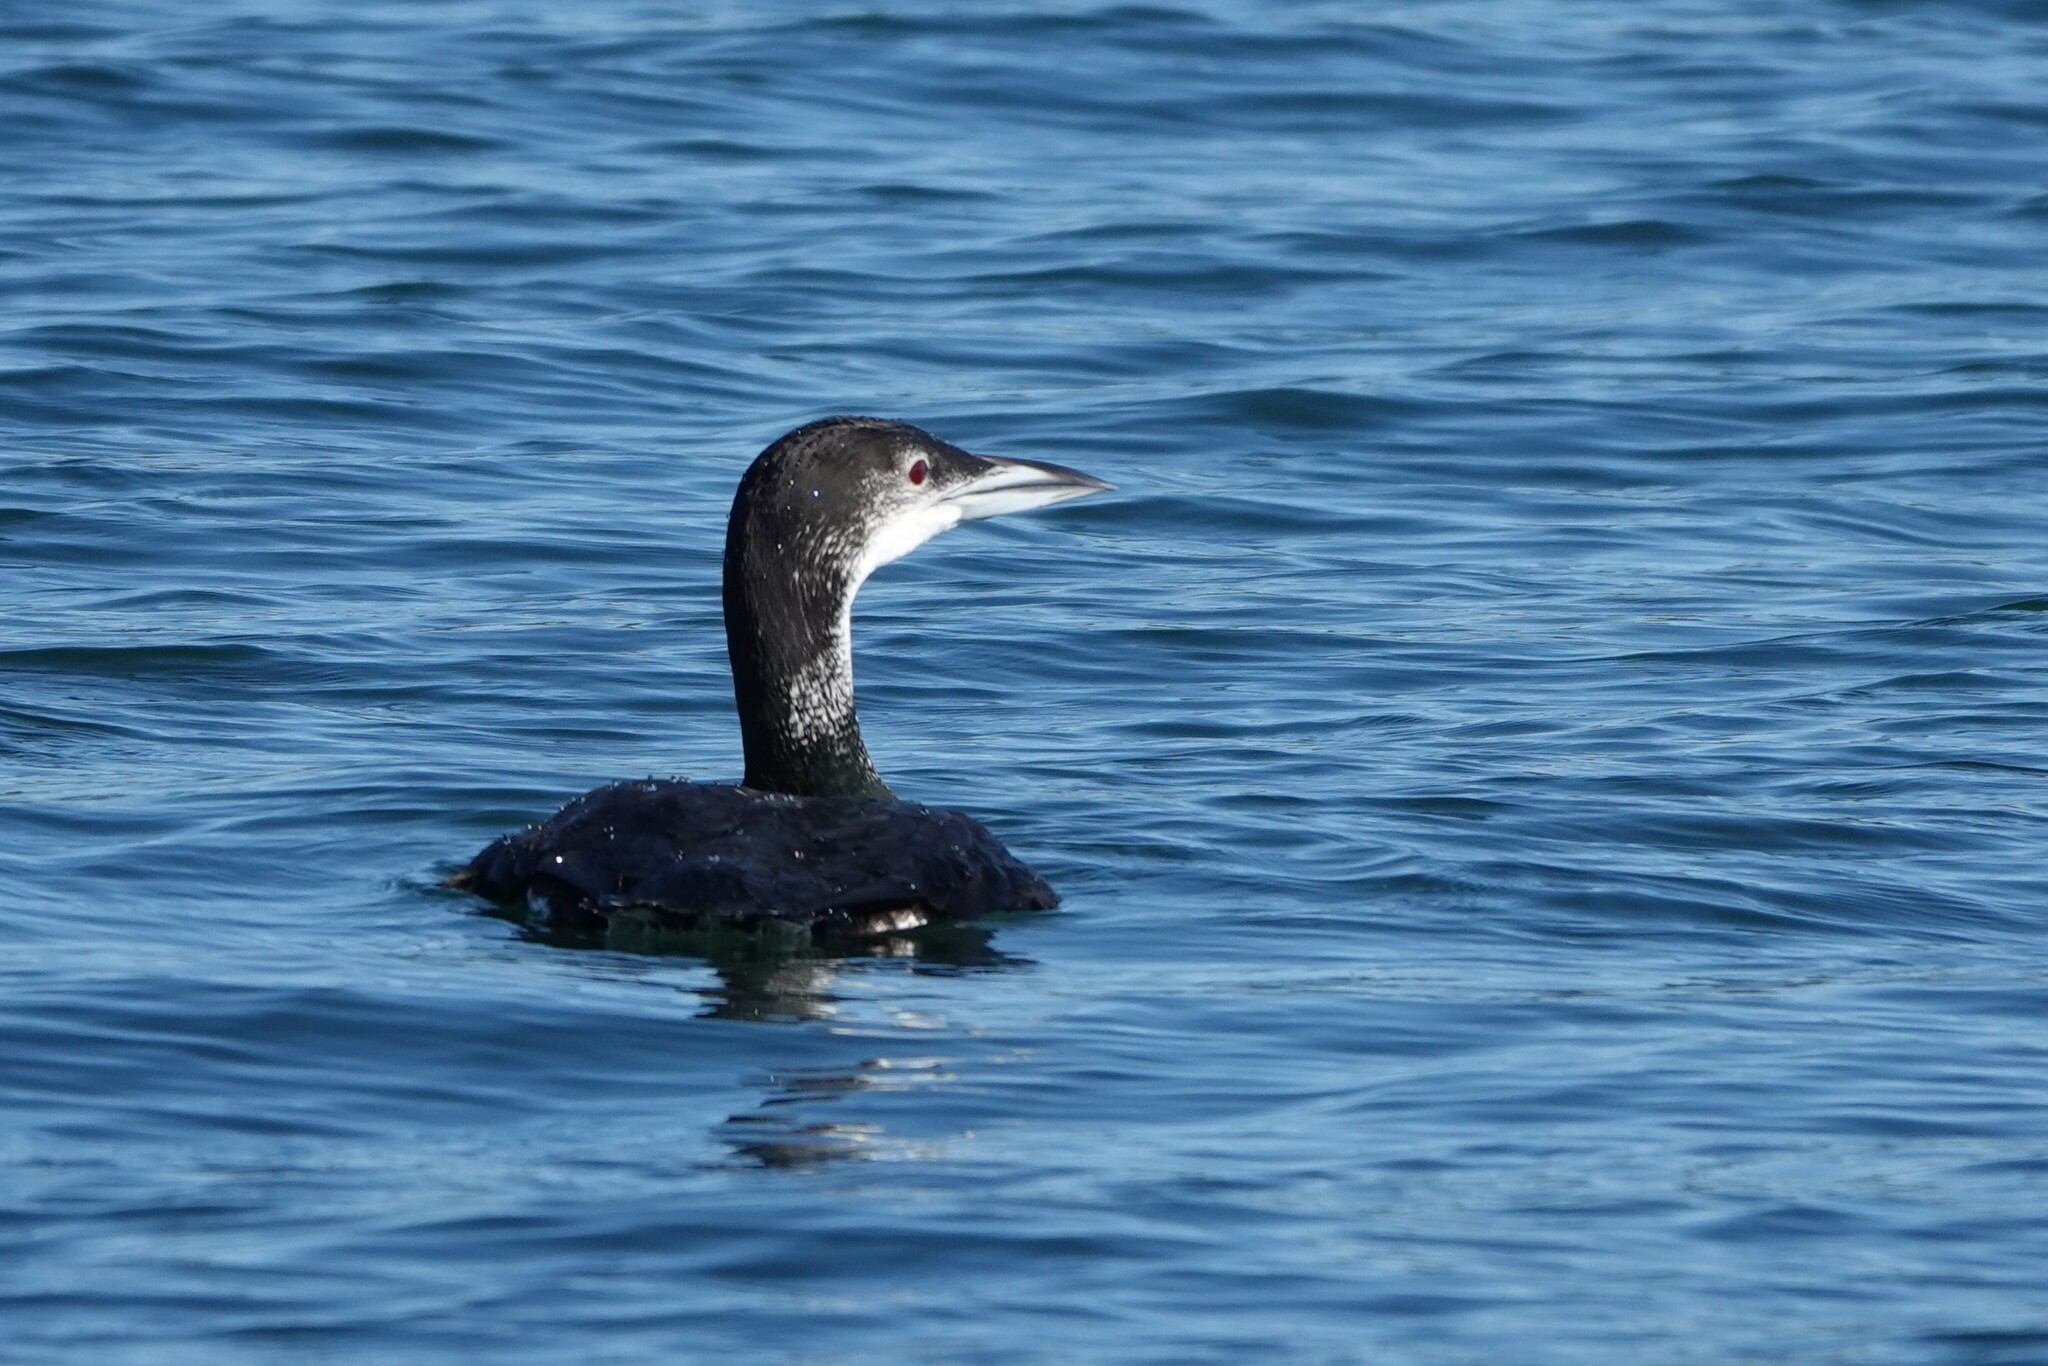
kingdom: Animalia
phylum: Chordata
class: Aves
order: Gaviiformes
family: Gaviidae
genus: Gavia
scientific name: Gavia immer
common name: Common loon
